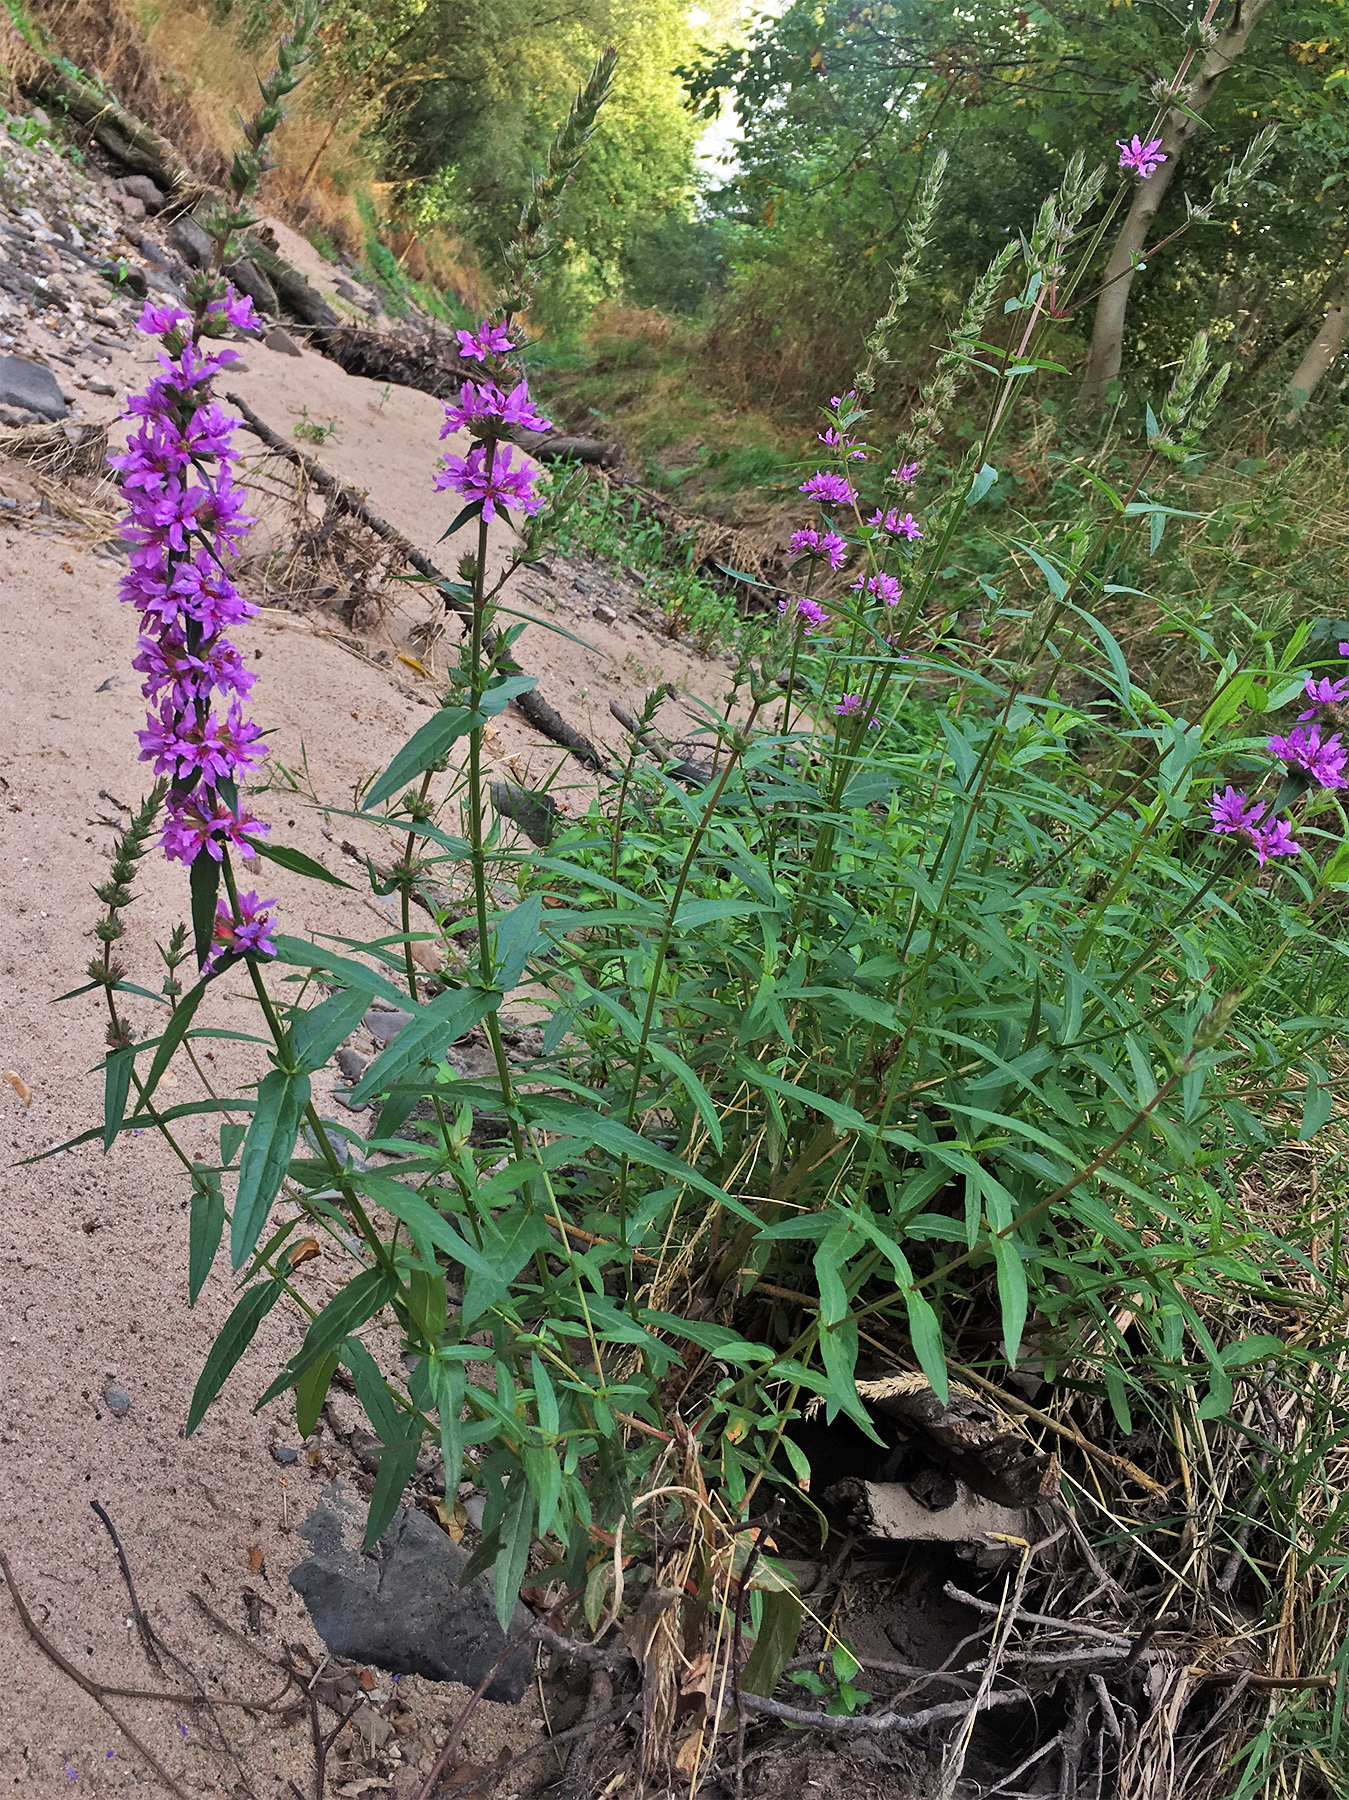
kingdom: Plantae
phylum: Tracheophyta
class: Magnoliopsida
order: Myrtales
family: Lythraceae
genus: Lythrum
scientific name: Lythrum salicaria
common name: Purple loosestrife
